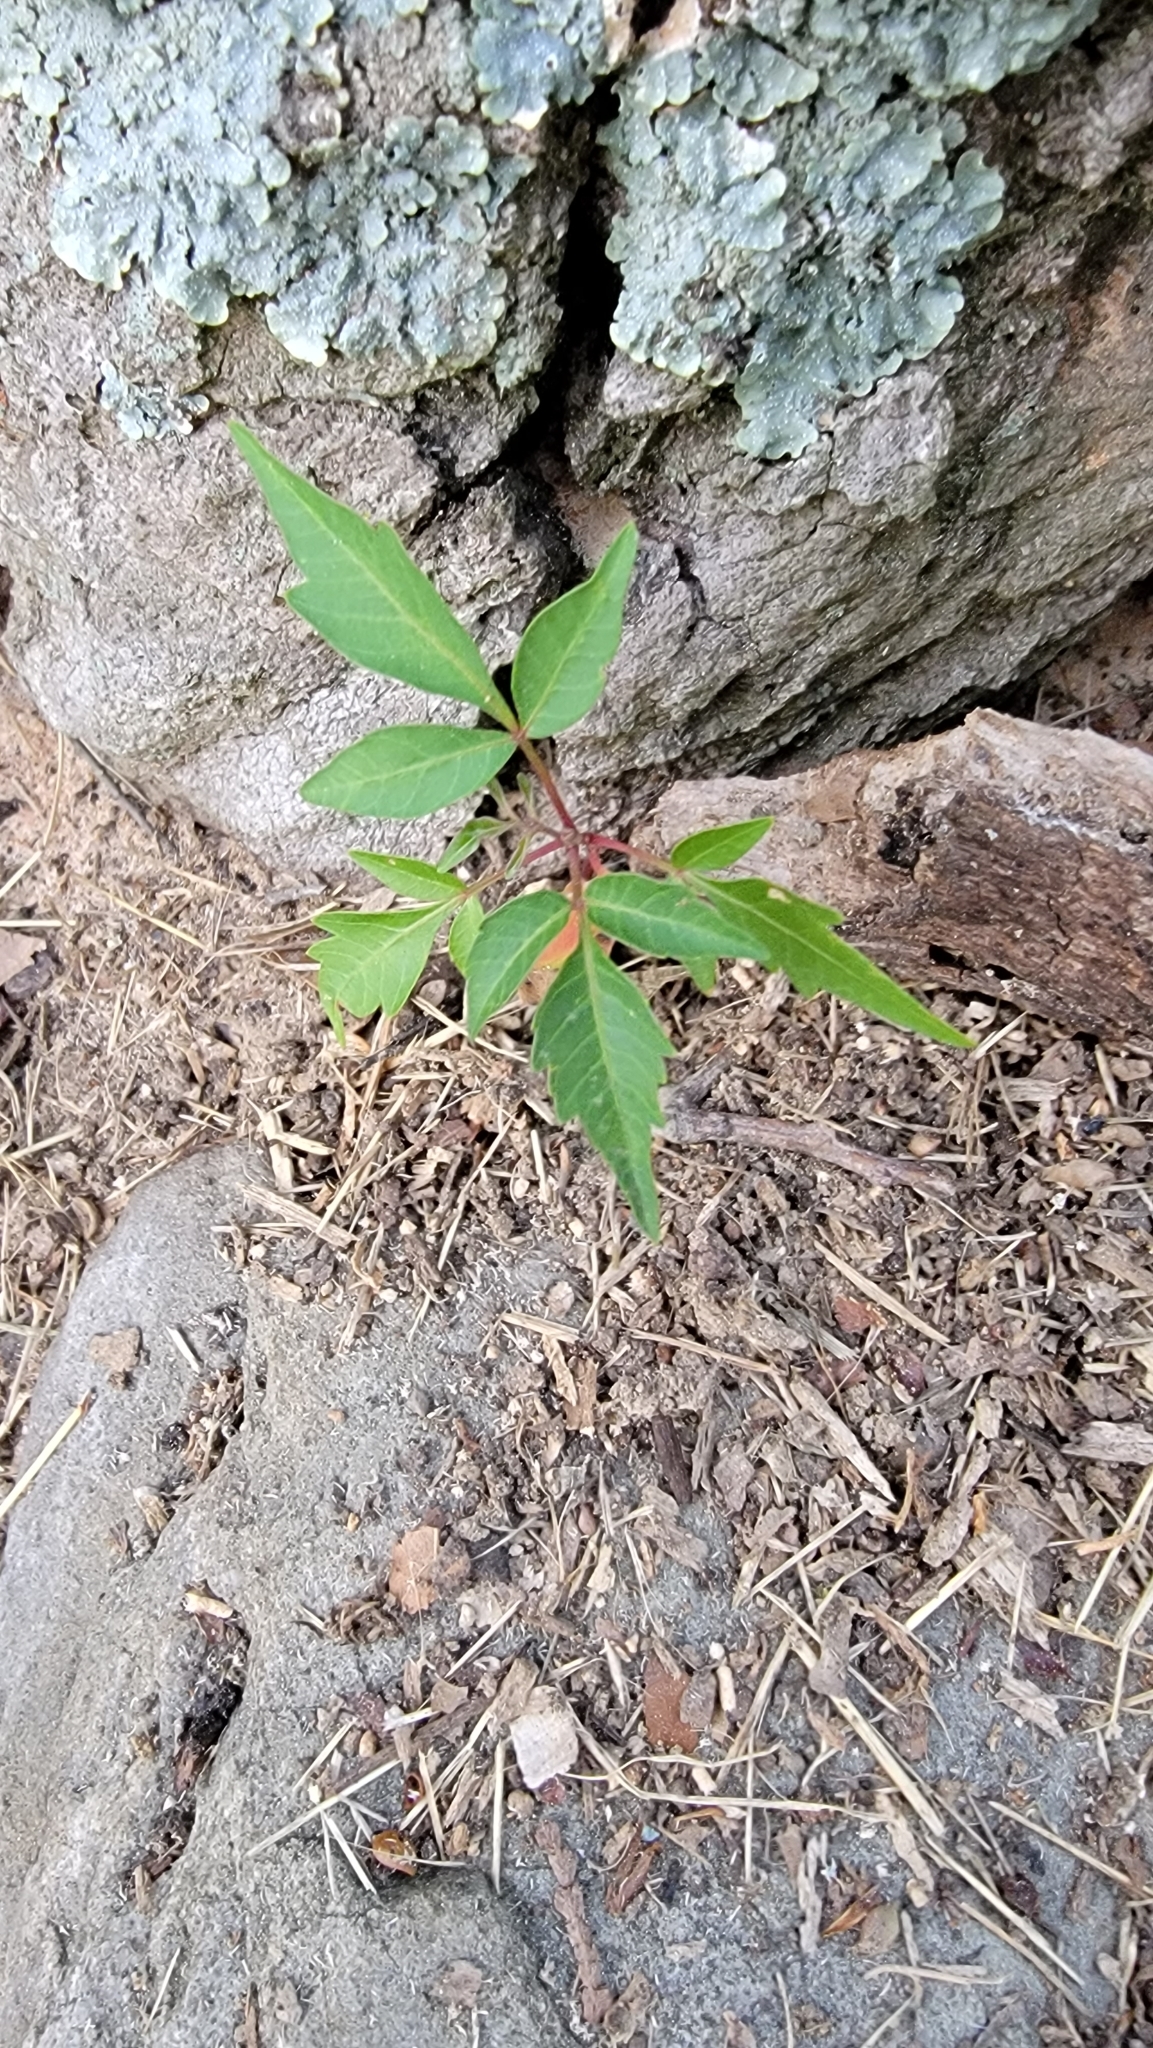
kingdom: Plantae
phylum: Tracheophyta
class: Magnoliopsida
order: Sapindales
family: Anacardiaceae
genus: Toxicodendron
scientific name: Toxicodendron radicans
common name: Poison ivy
